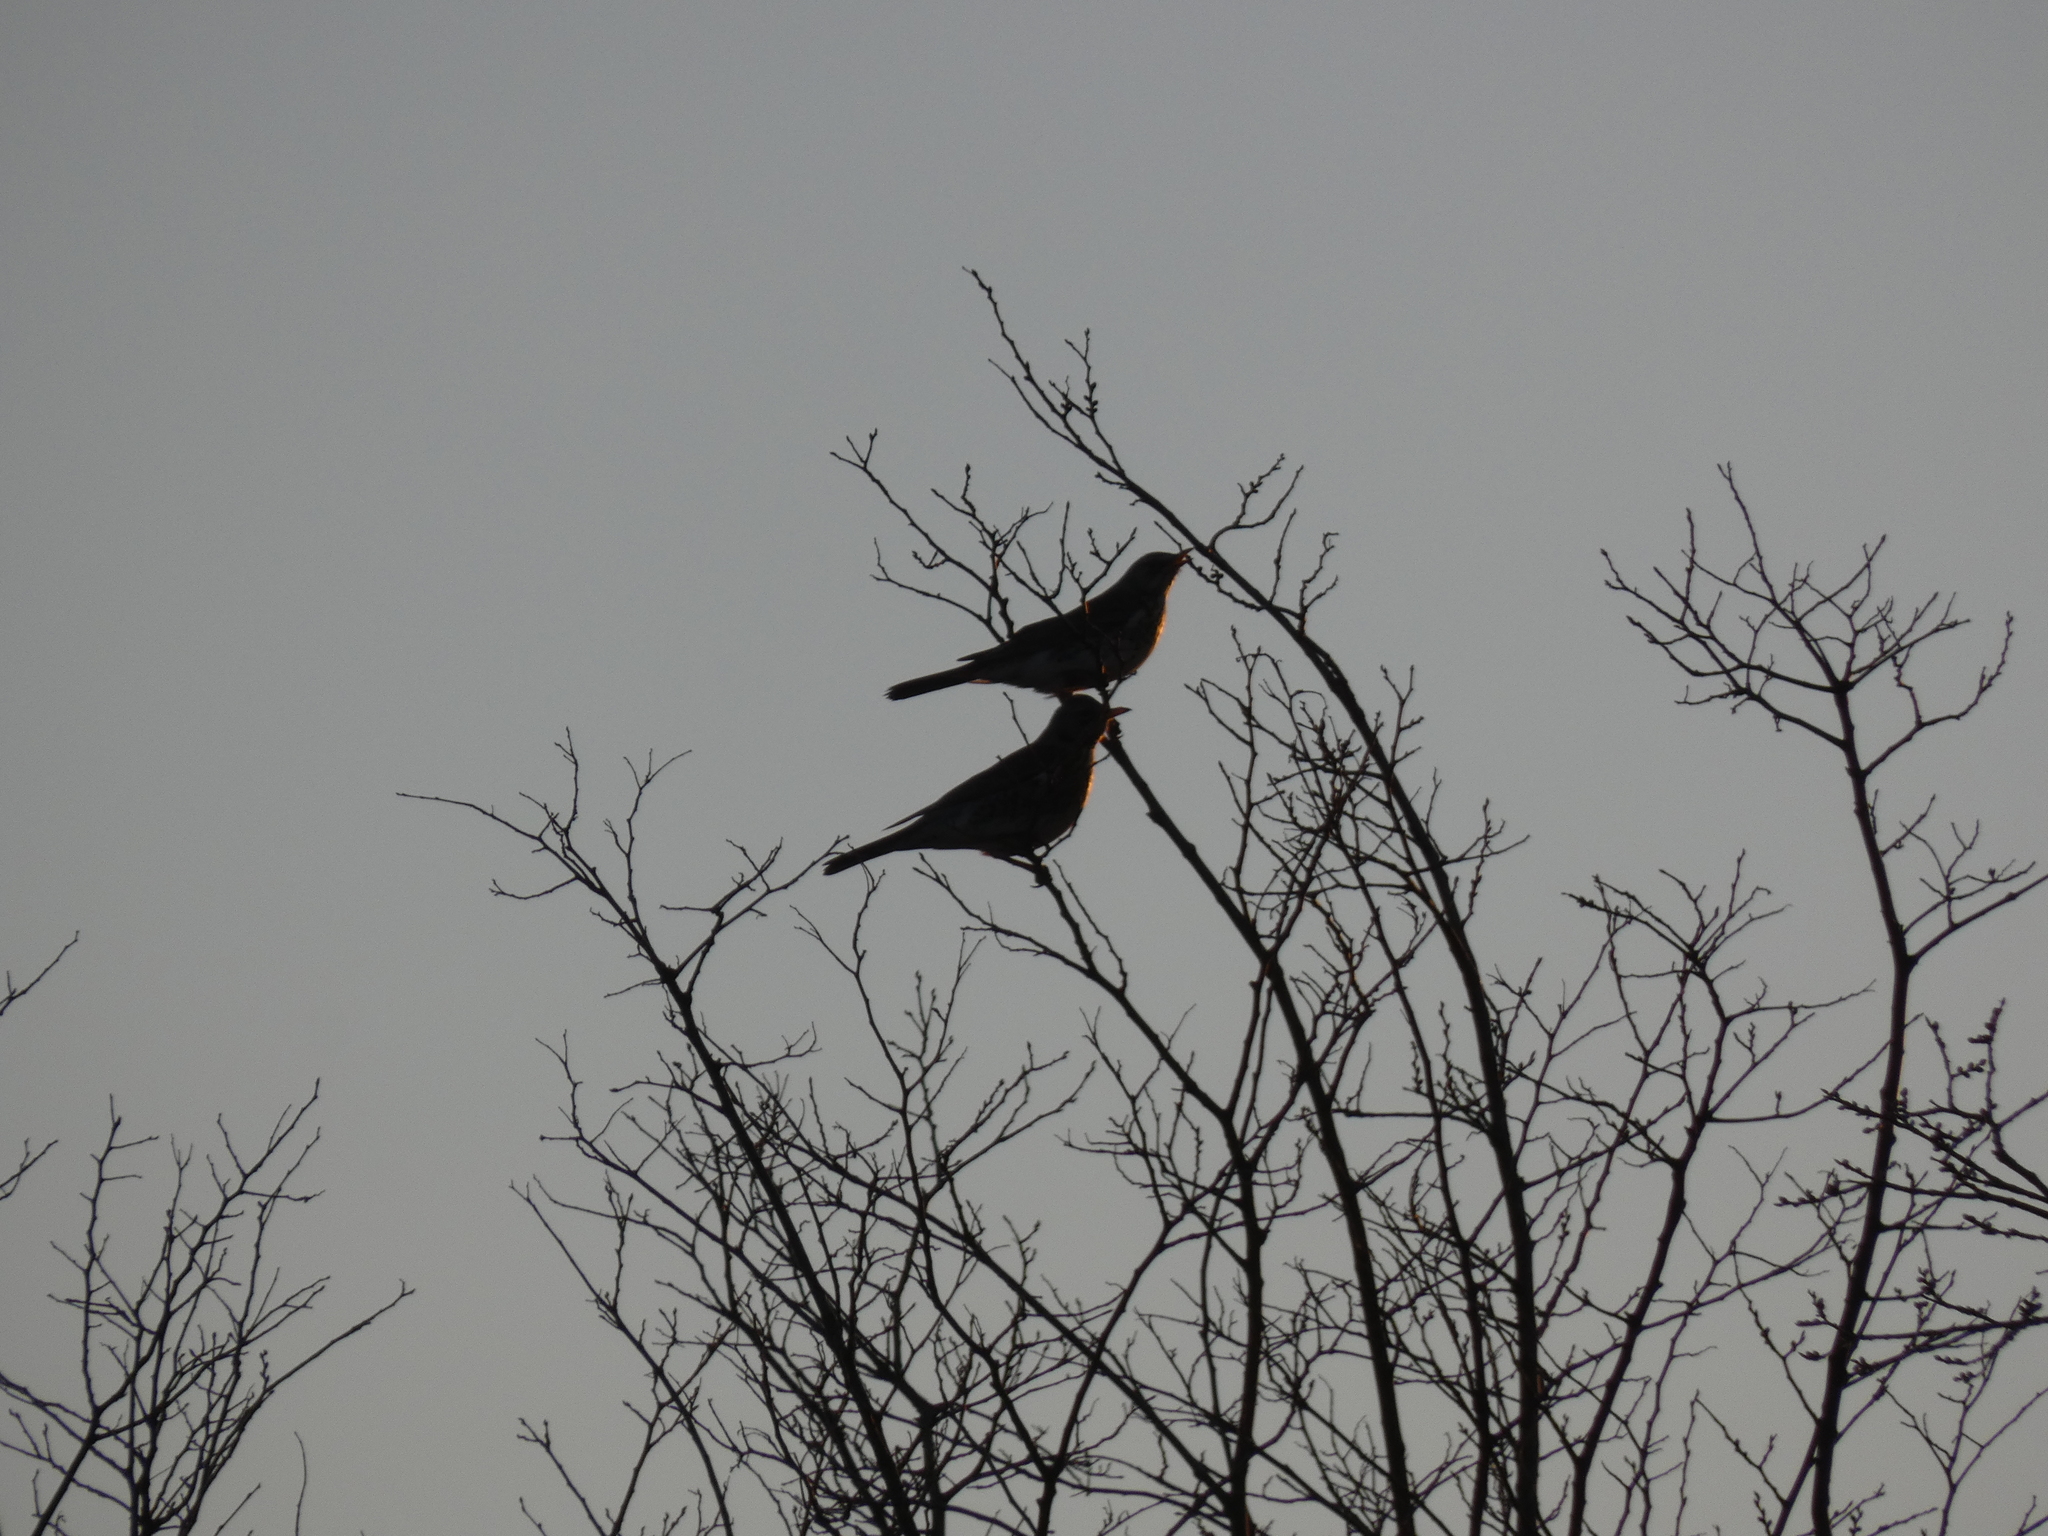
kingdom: Animalia
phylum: Chordata
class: Aves
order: Passeriformes
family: Turdidae
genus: Turdus
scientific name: Turdus pilaris
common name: Fieldfare
